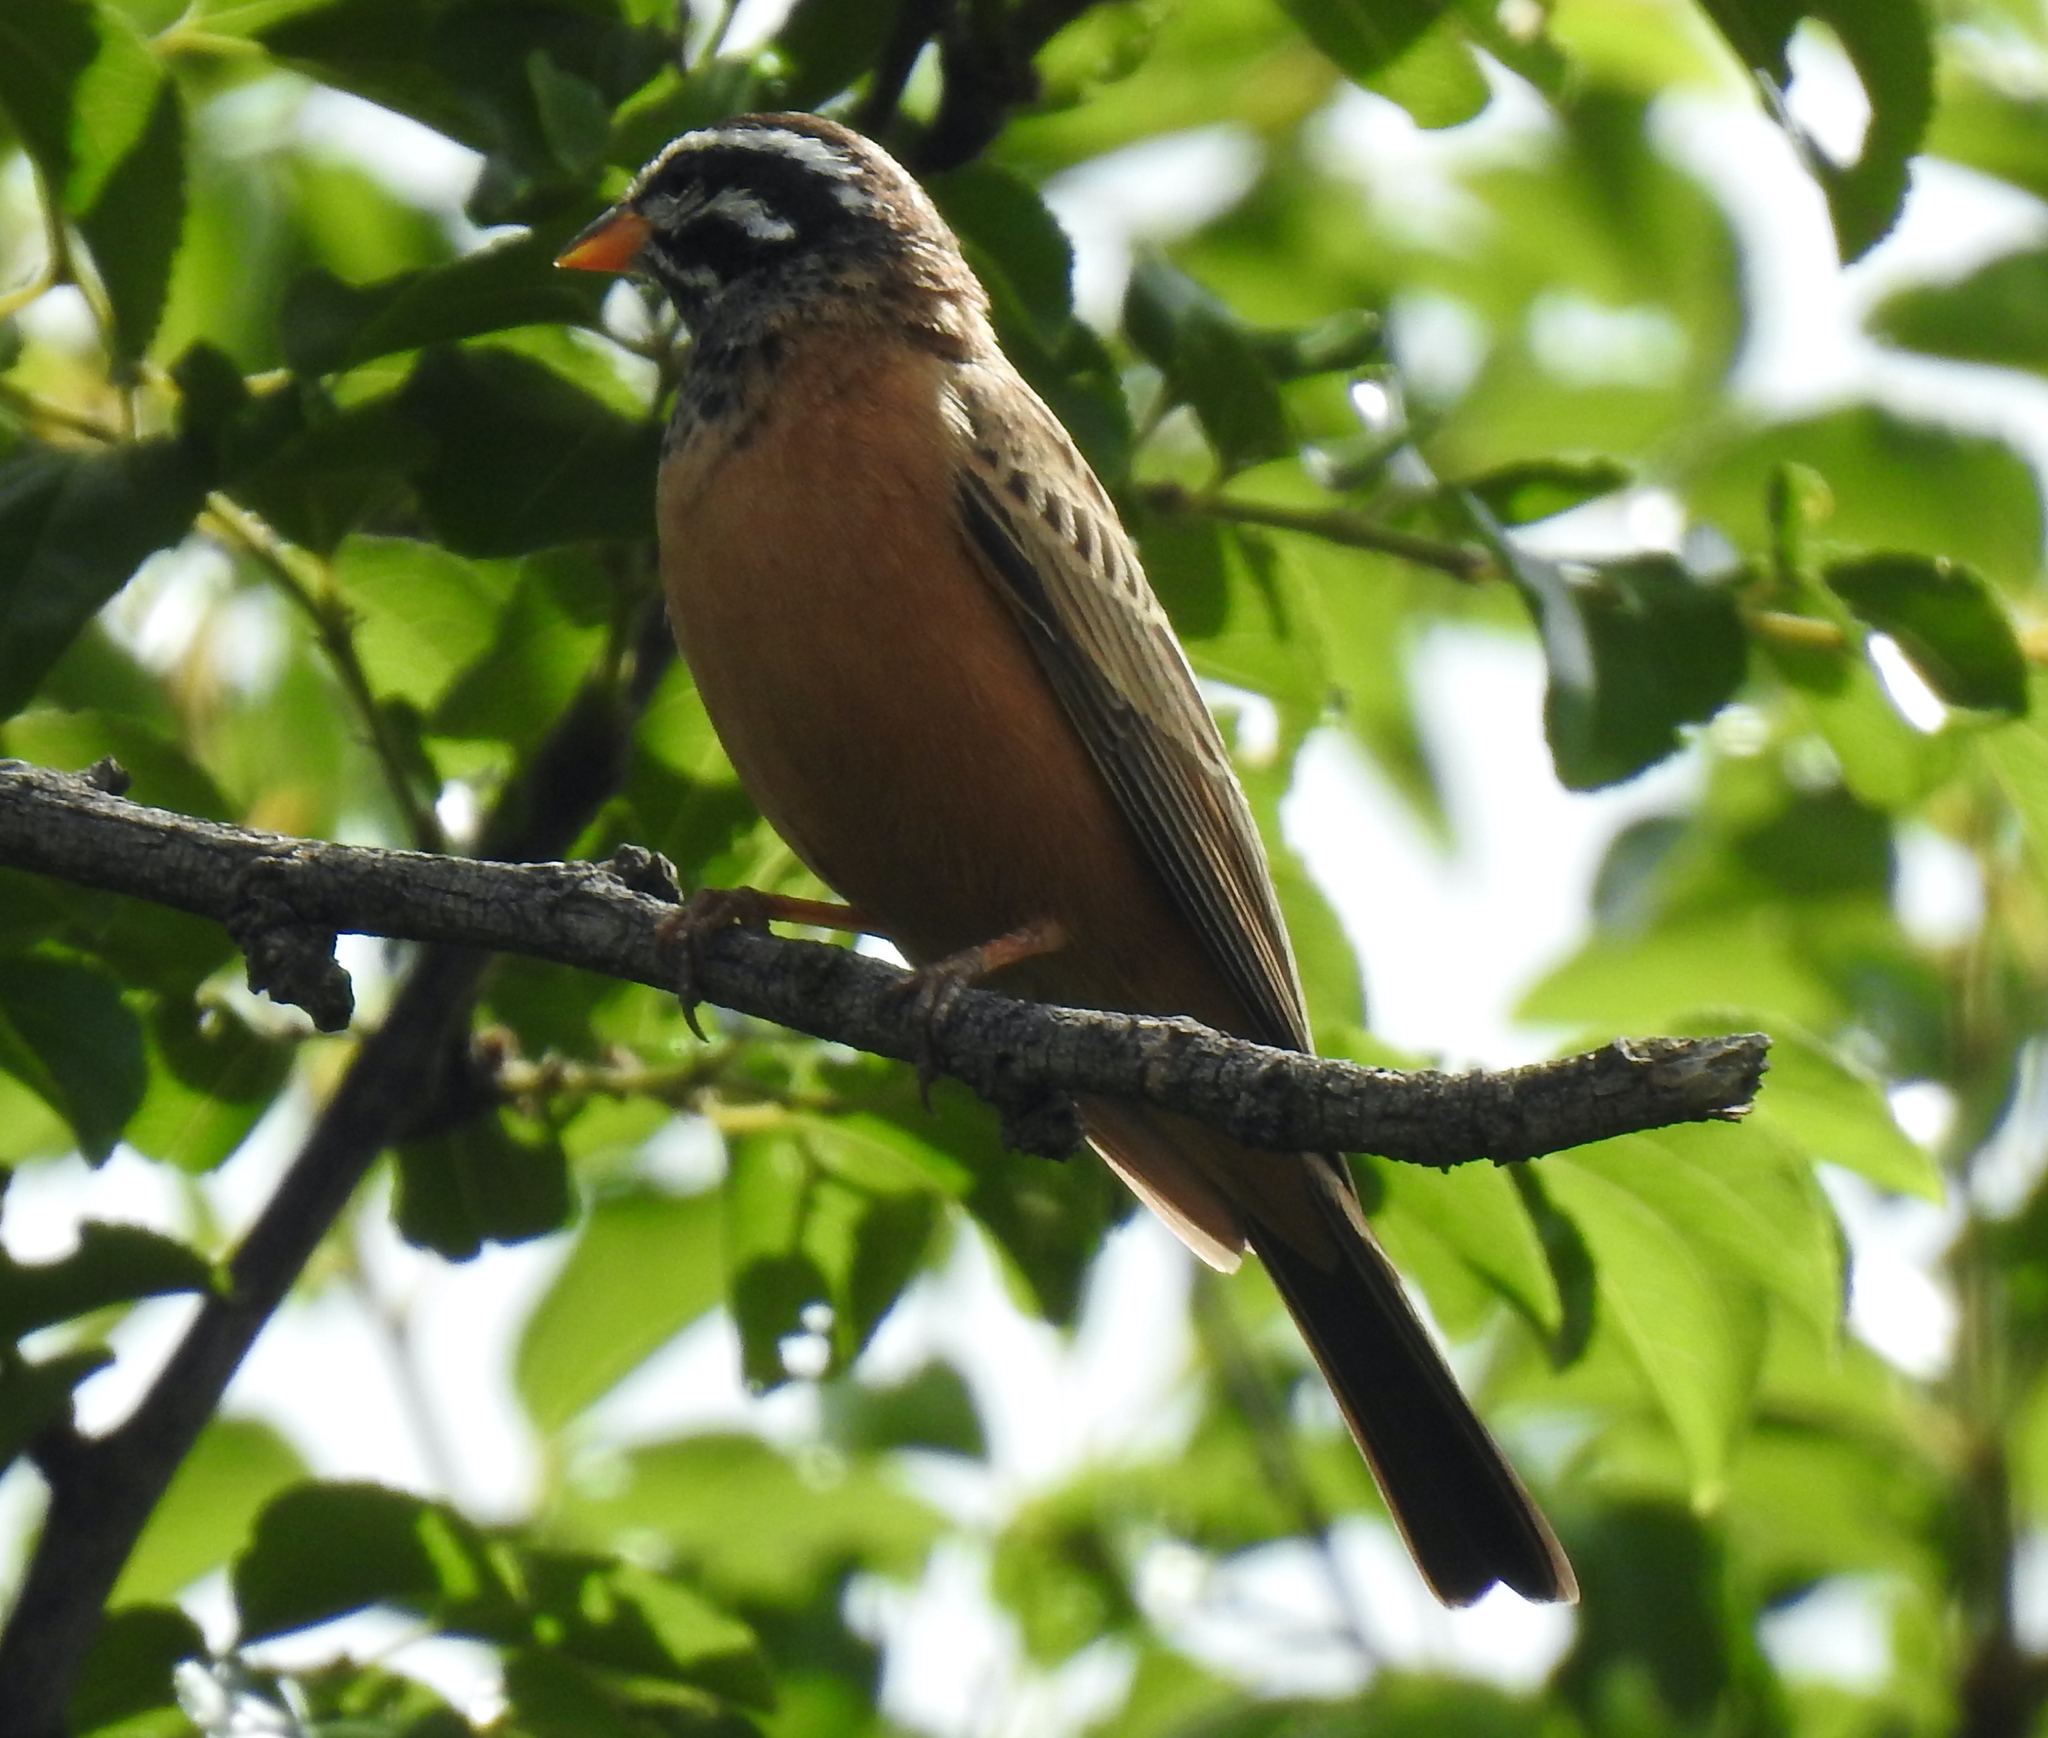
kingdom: Animalia
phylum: Chordata
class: Aves
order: Passeriformes
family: Emberizidae
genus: Emberiza
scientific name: Emberiza tahapisi
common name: Cinnamon-breasted bunting
